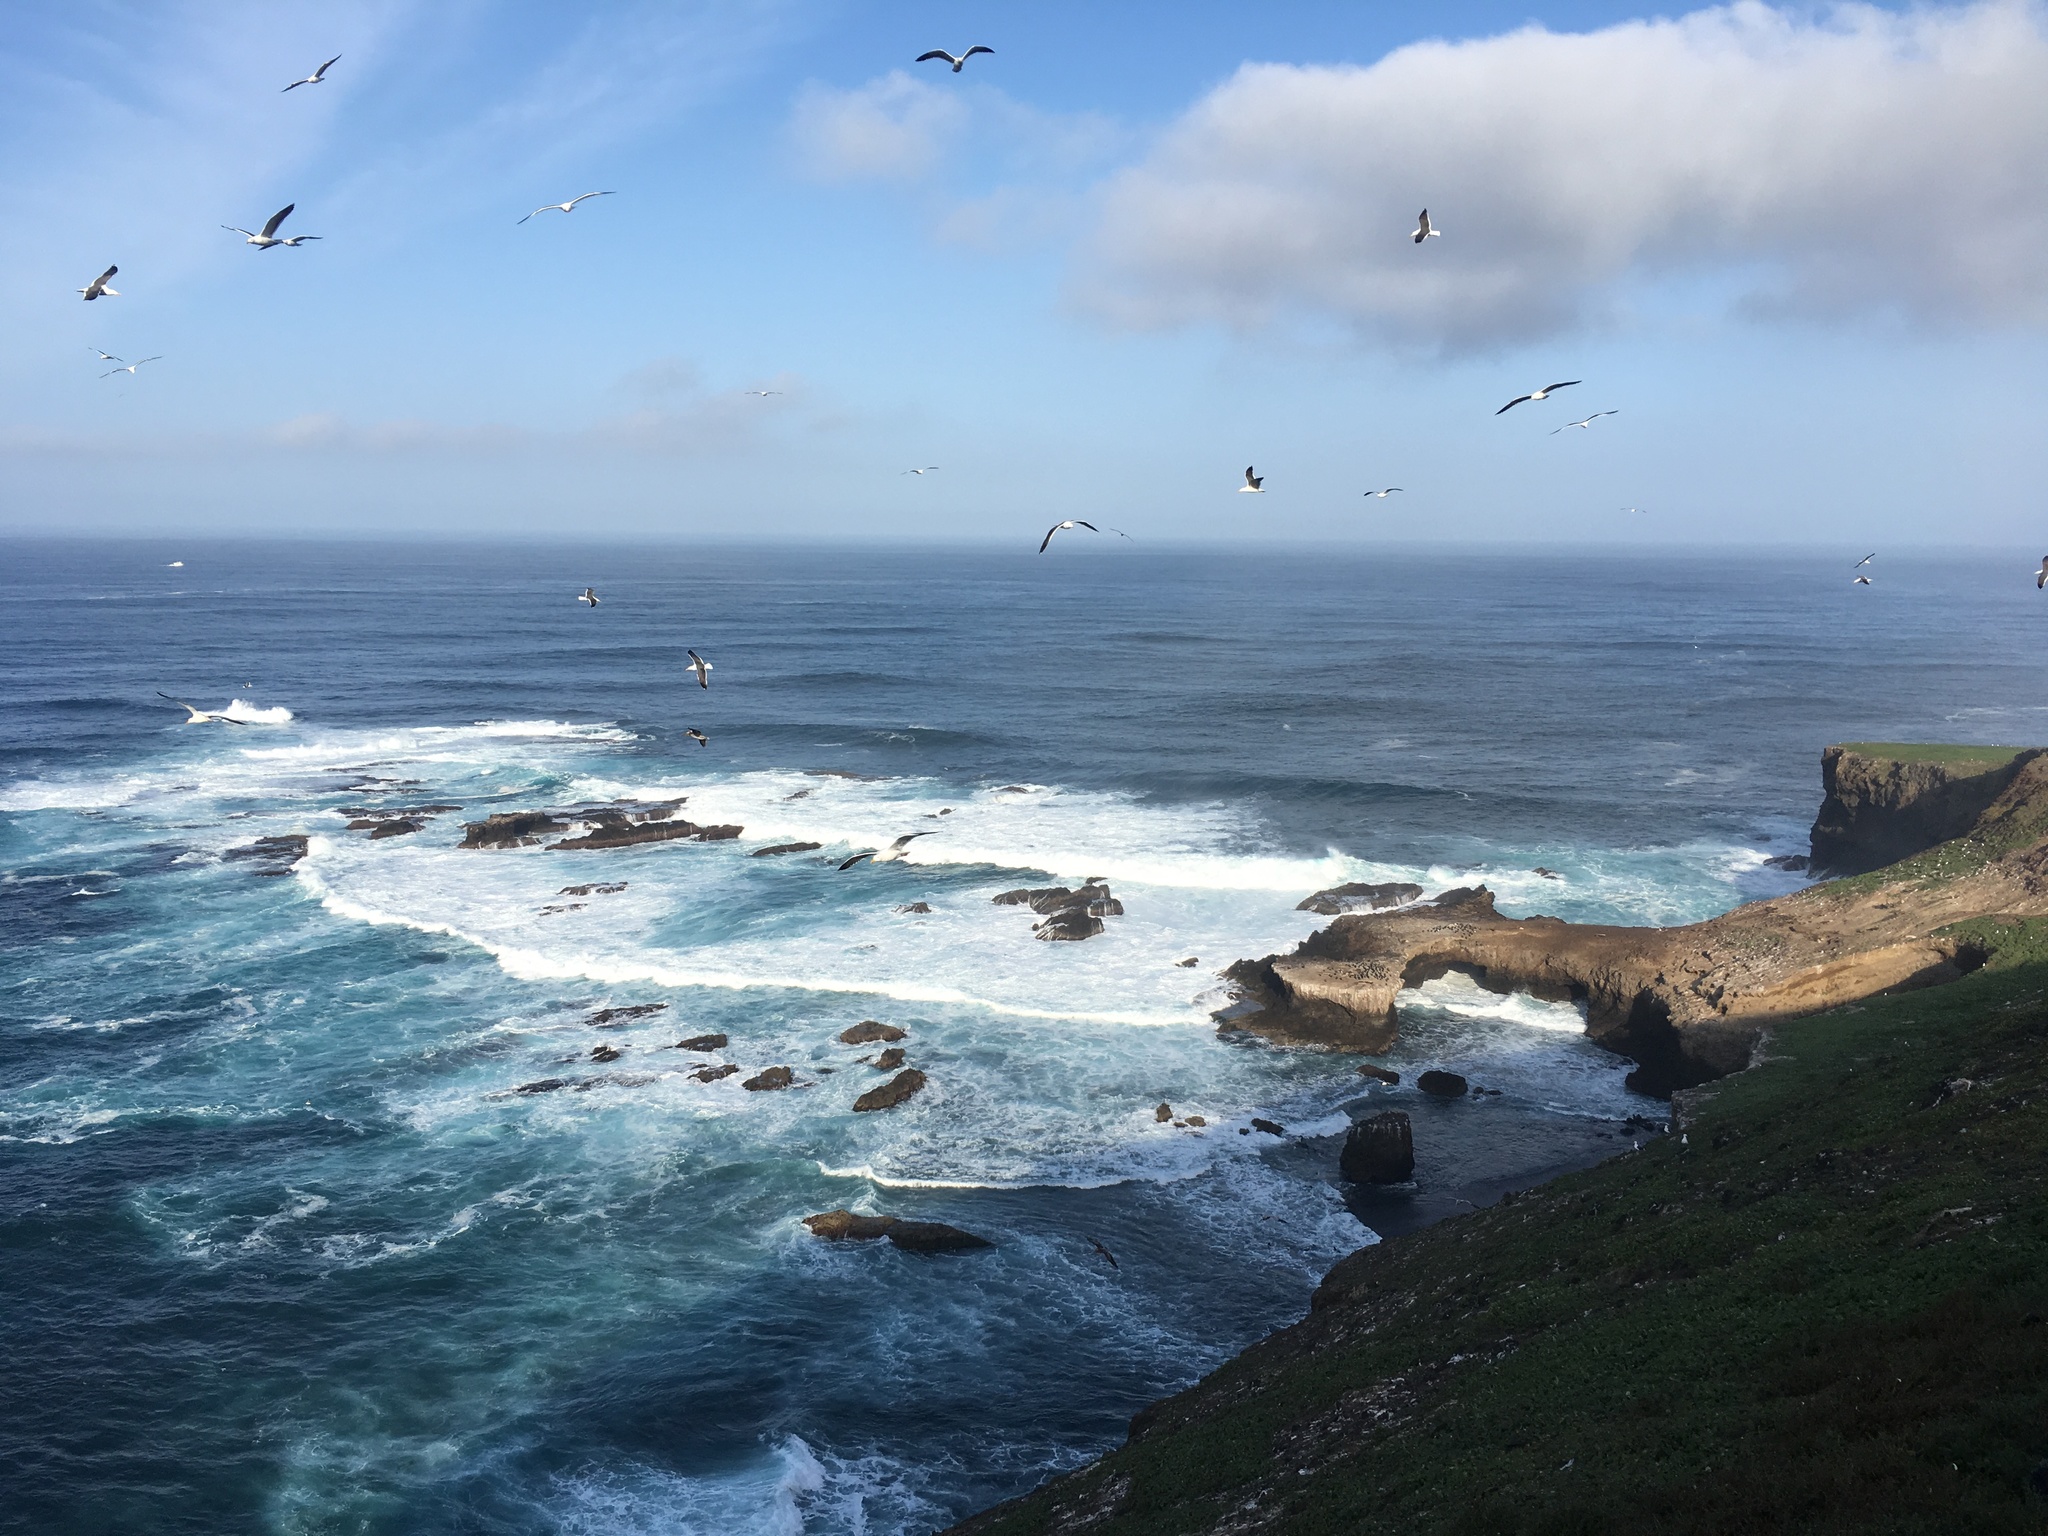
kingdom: Animalia
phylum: Chordata
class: Aves
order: Charadriiformes
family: Laridae
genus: Larus
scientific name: Larus occidentalis
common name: Western gull
